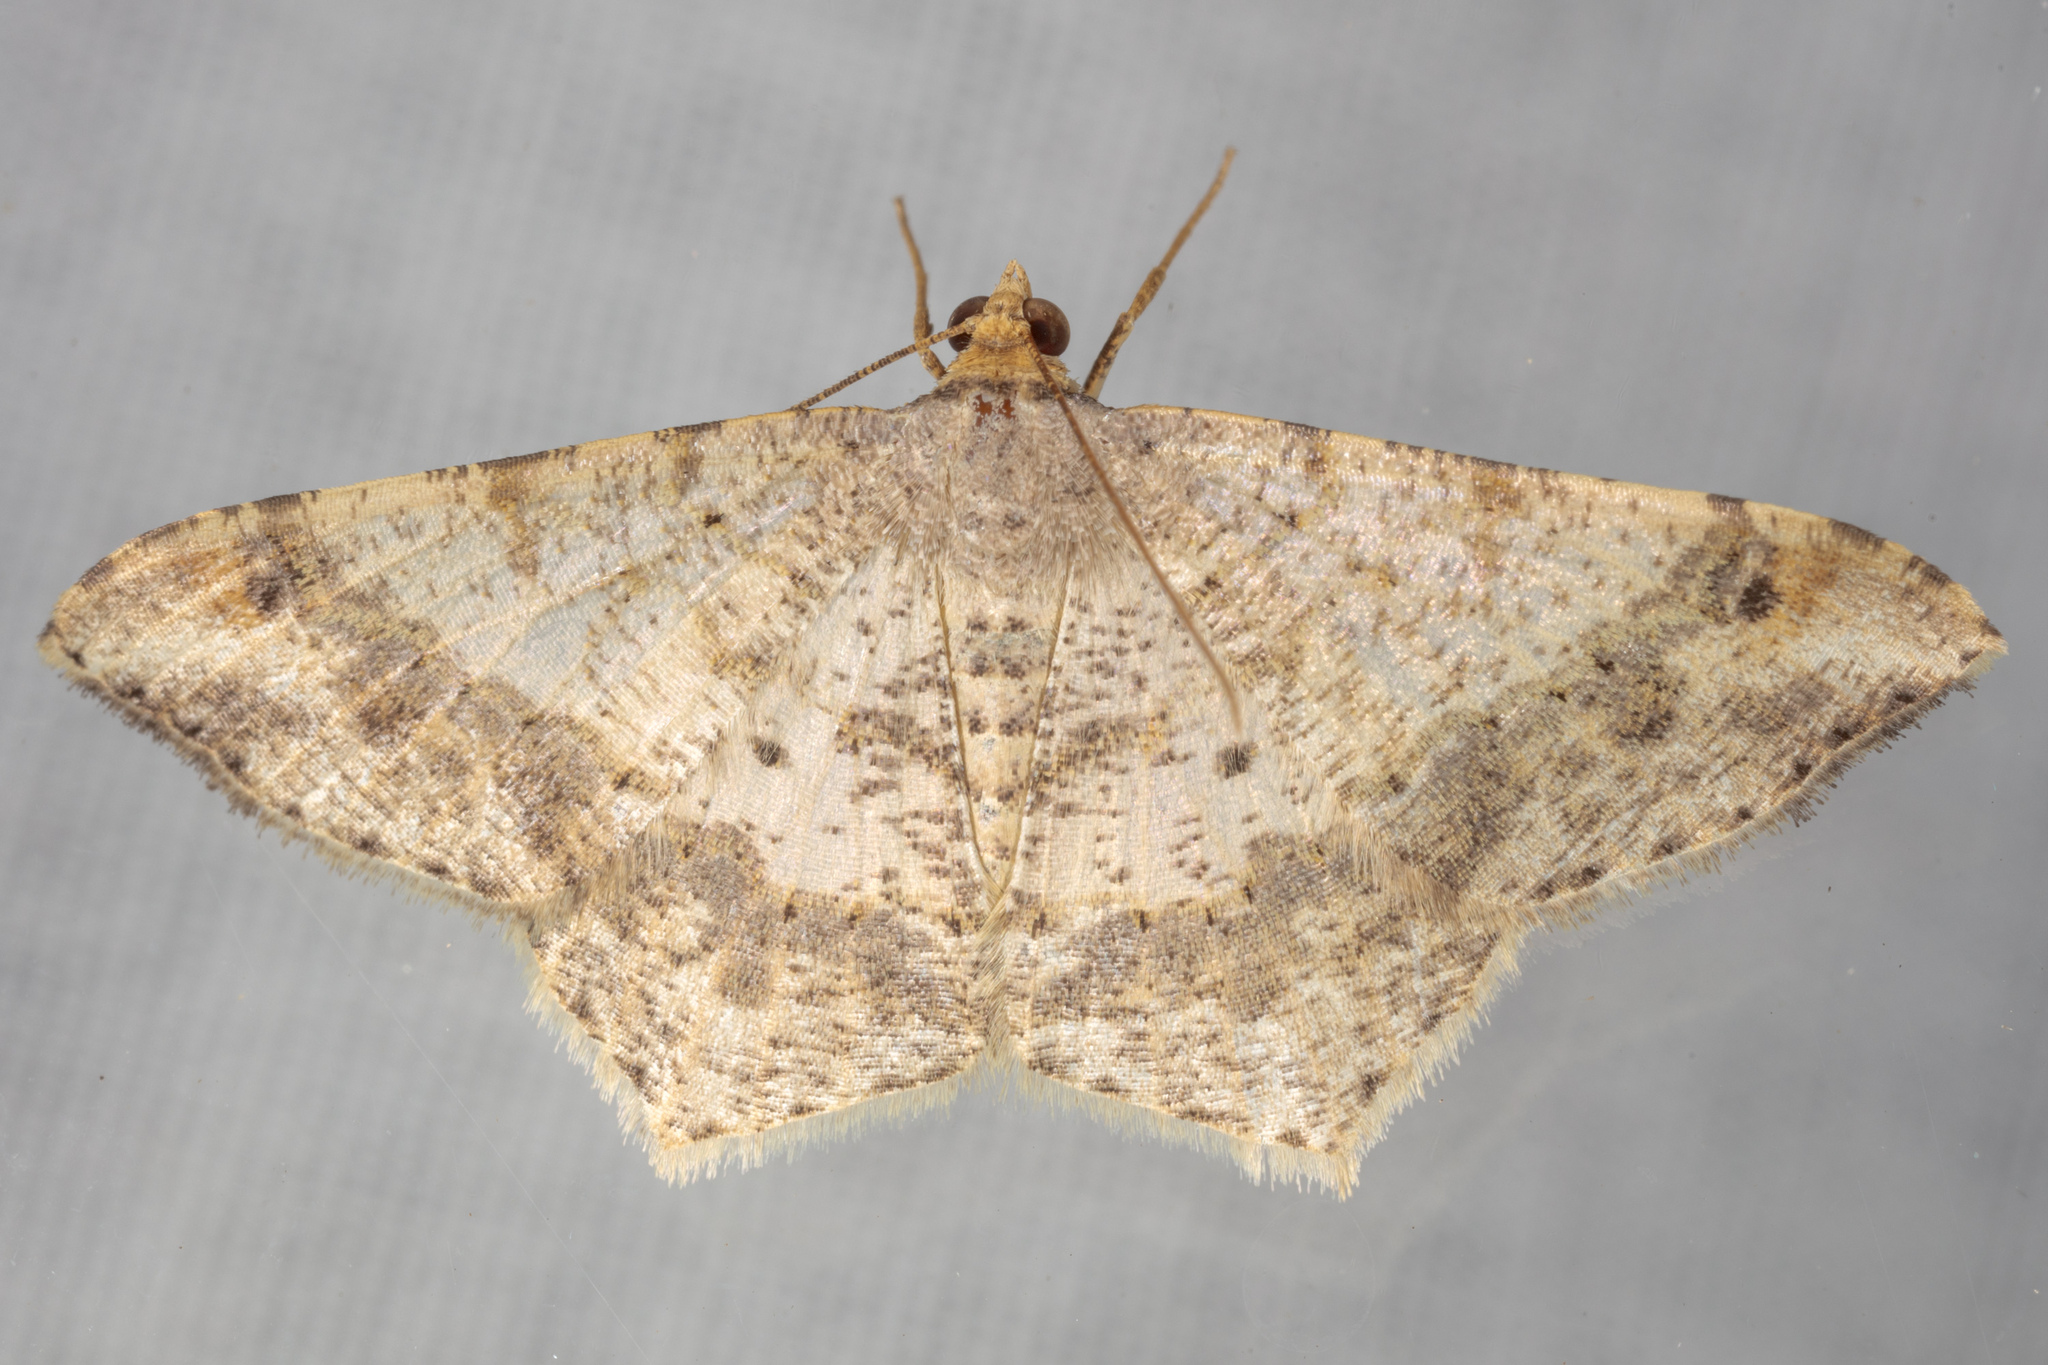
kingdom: Animalia
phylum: Arthropoda
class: Insecta
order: Lepidoptera
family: Geometridae
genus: Macaria
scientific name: Macaria abydata
